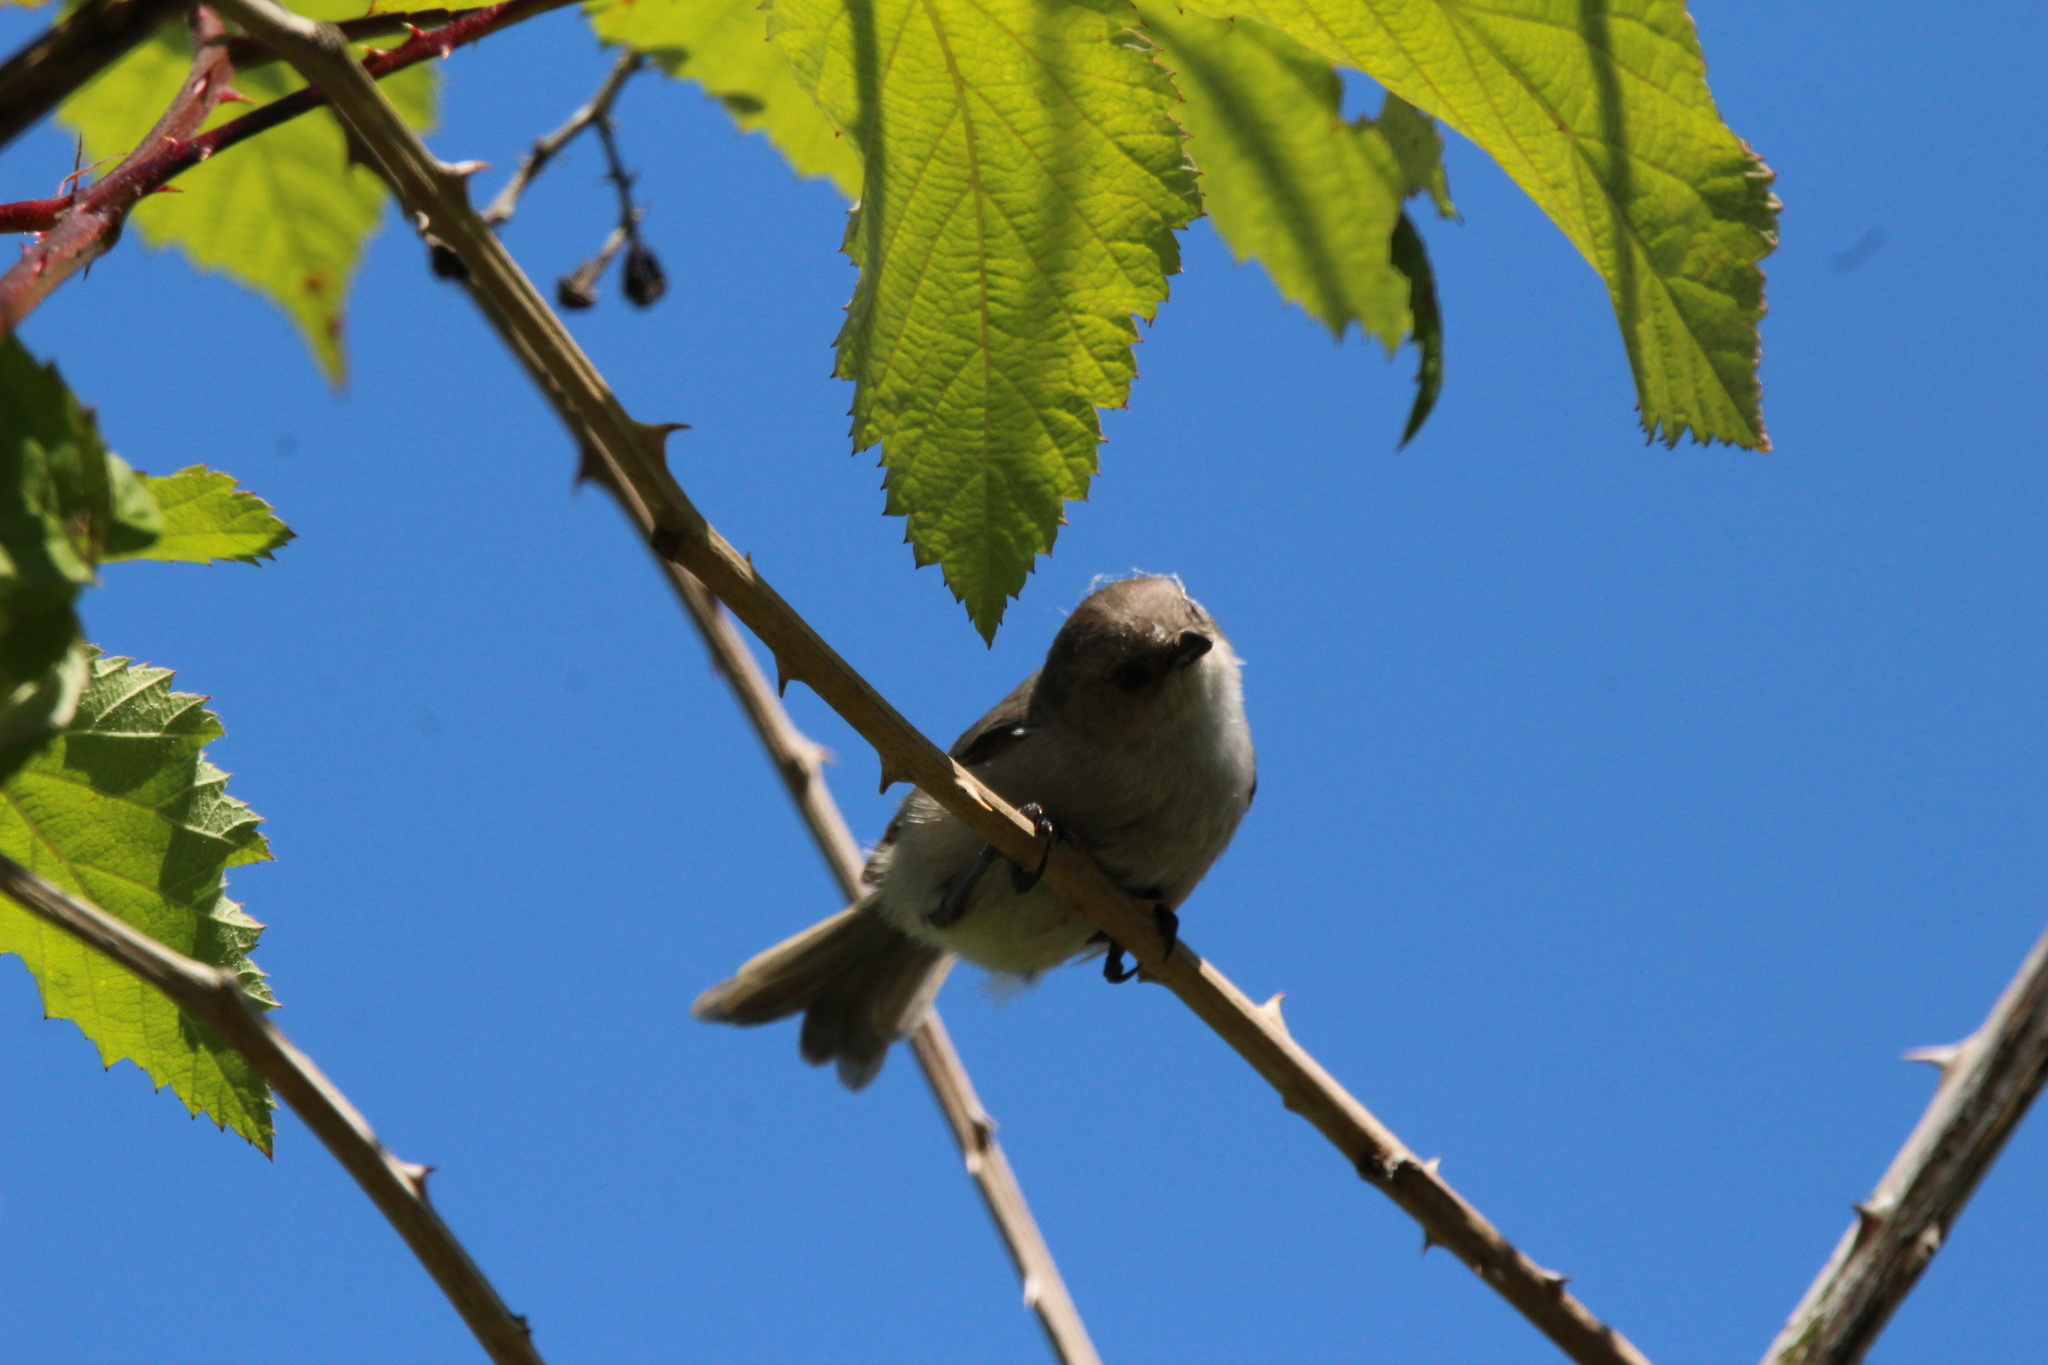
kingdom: Animalia
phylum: Chordata
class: Aves
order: Passeriformes
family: Aegithalidae
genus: Psaltriparus
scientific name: Psaltriparus minimus
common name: American bushtit
